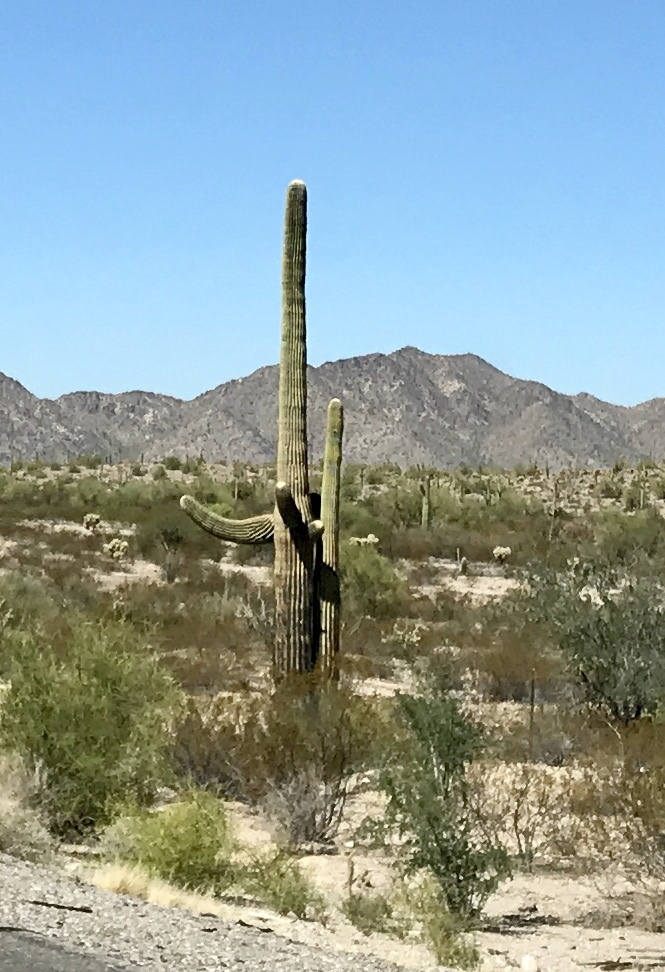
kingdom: Plantae
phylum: Tracheophyta
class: Magnoliopsida
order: Caryophyllales
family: Cactaceae
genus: Carnegiea
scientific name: Carnegiea gigantea
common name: Saguaro
